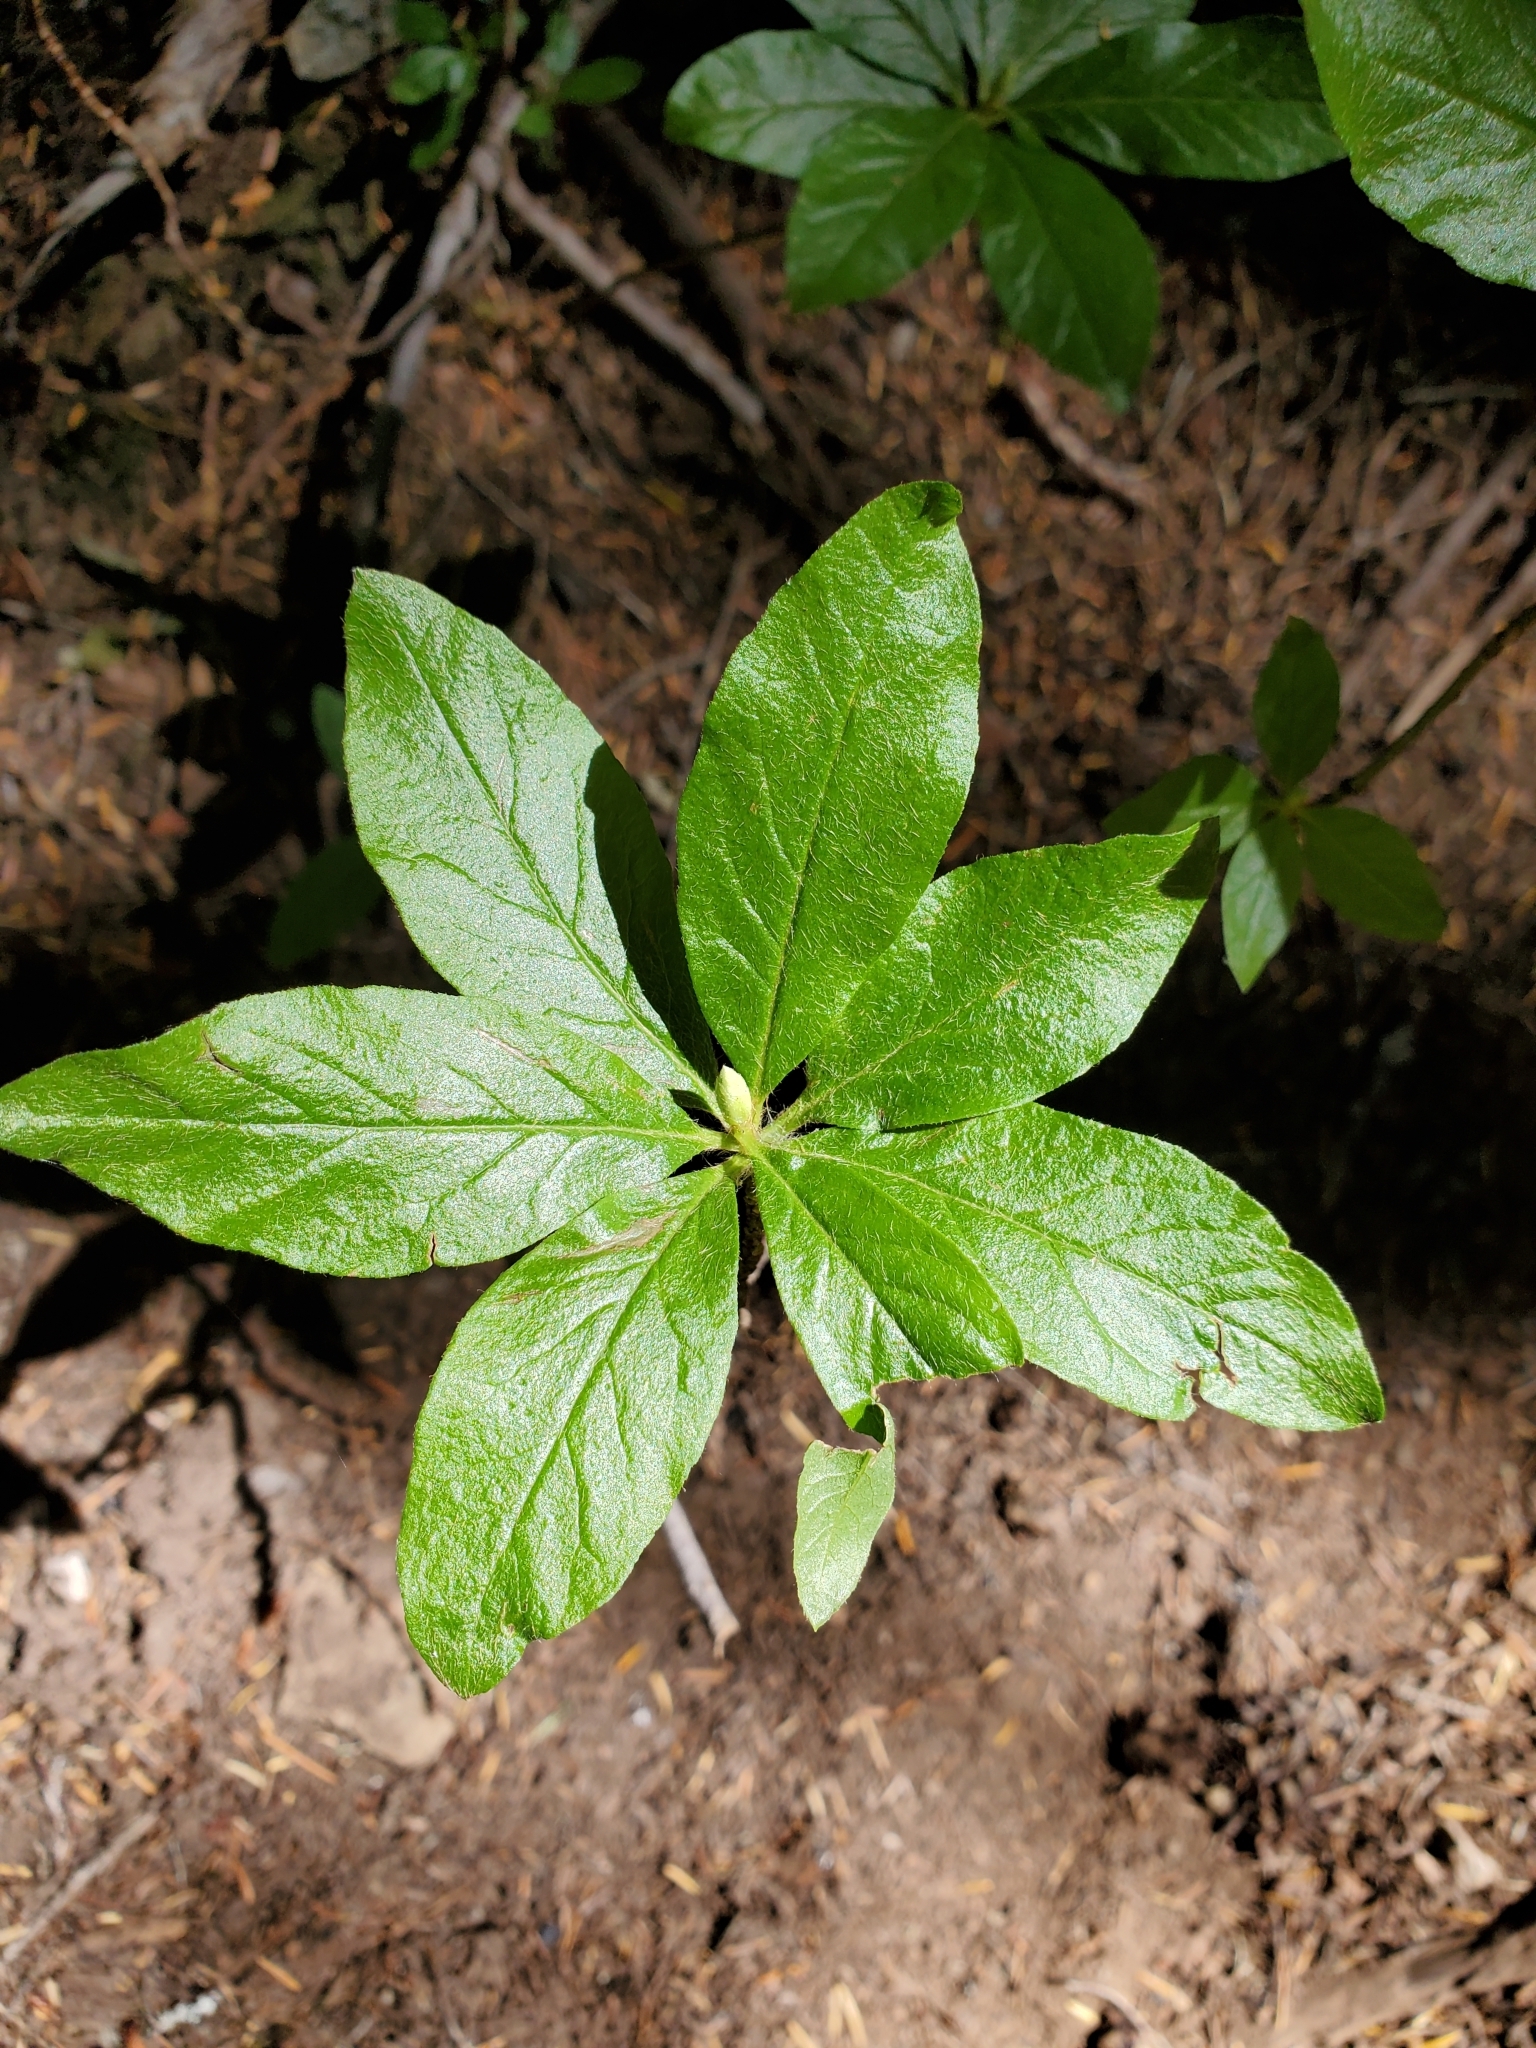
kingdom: Plantae
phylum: Tracheophyta
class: Magnoliopsida
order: Ericales
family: Ericaceae
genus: Rhododendron
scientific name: Rhododendron albiflorum
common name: White rhododendron
